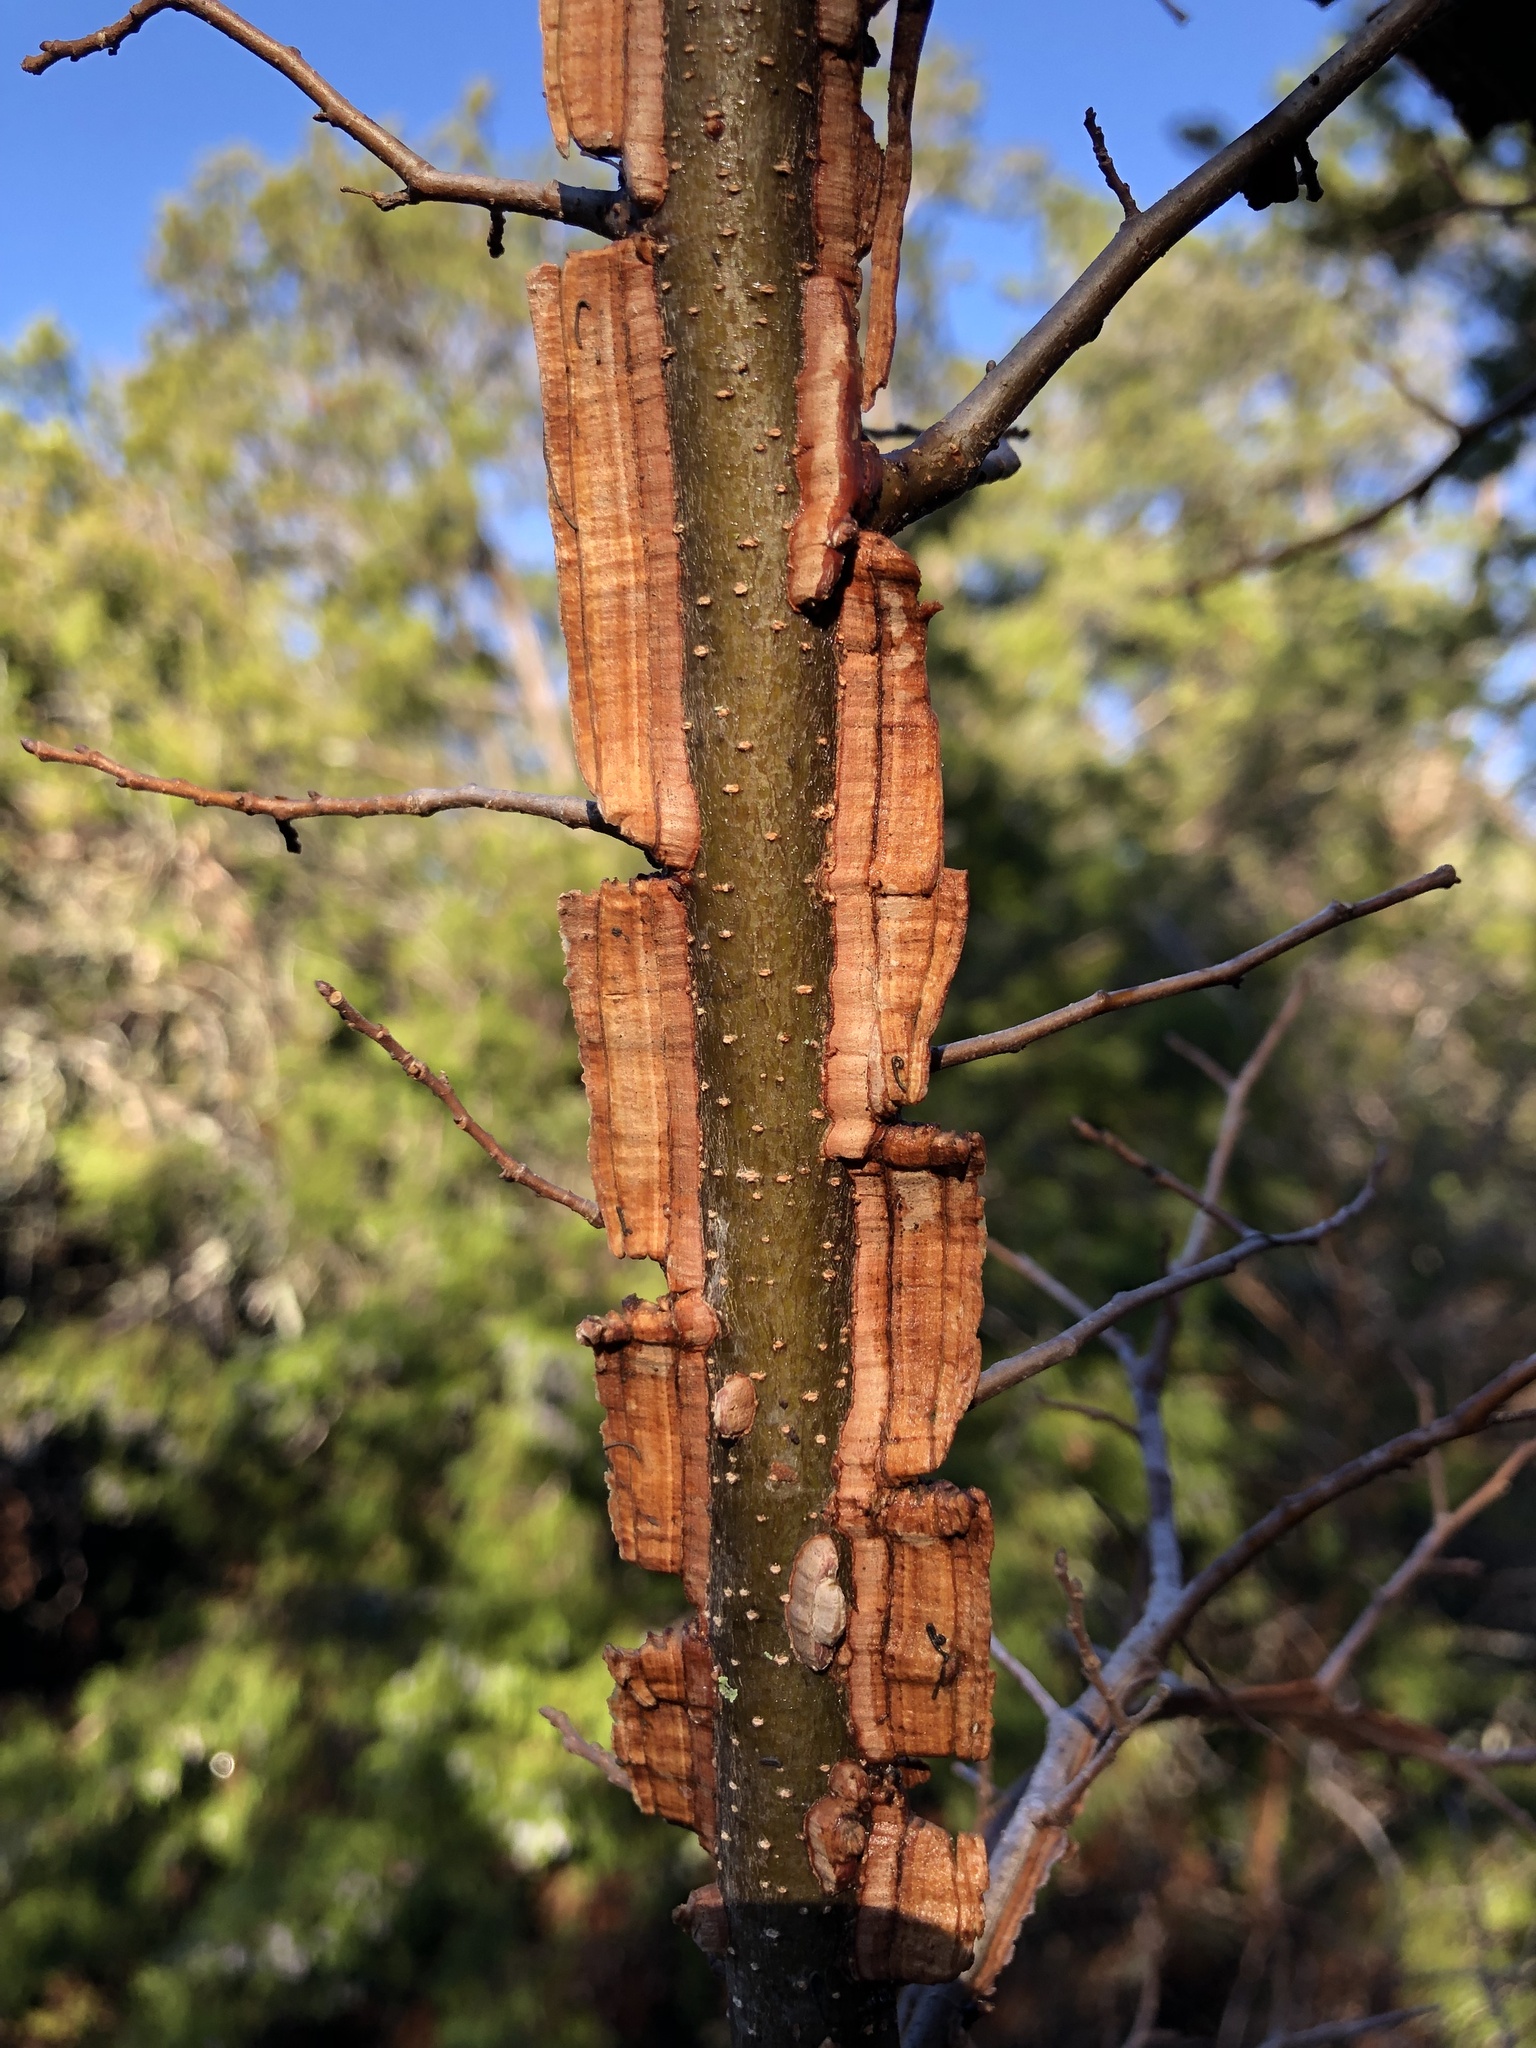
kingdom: Plantae
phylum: Tracheophyta
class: Magnoliopsida
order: Rosales
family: Ulmaceae
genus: Ulmus
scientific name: Ulmus crassifolia
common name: Basket elm
